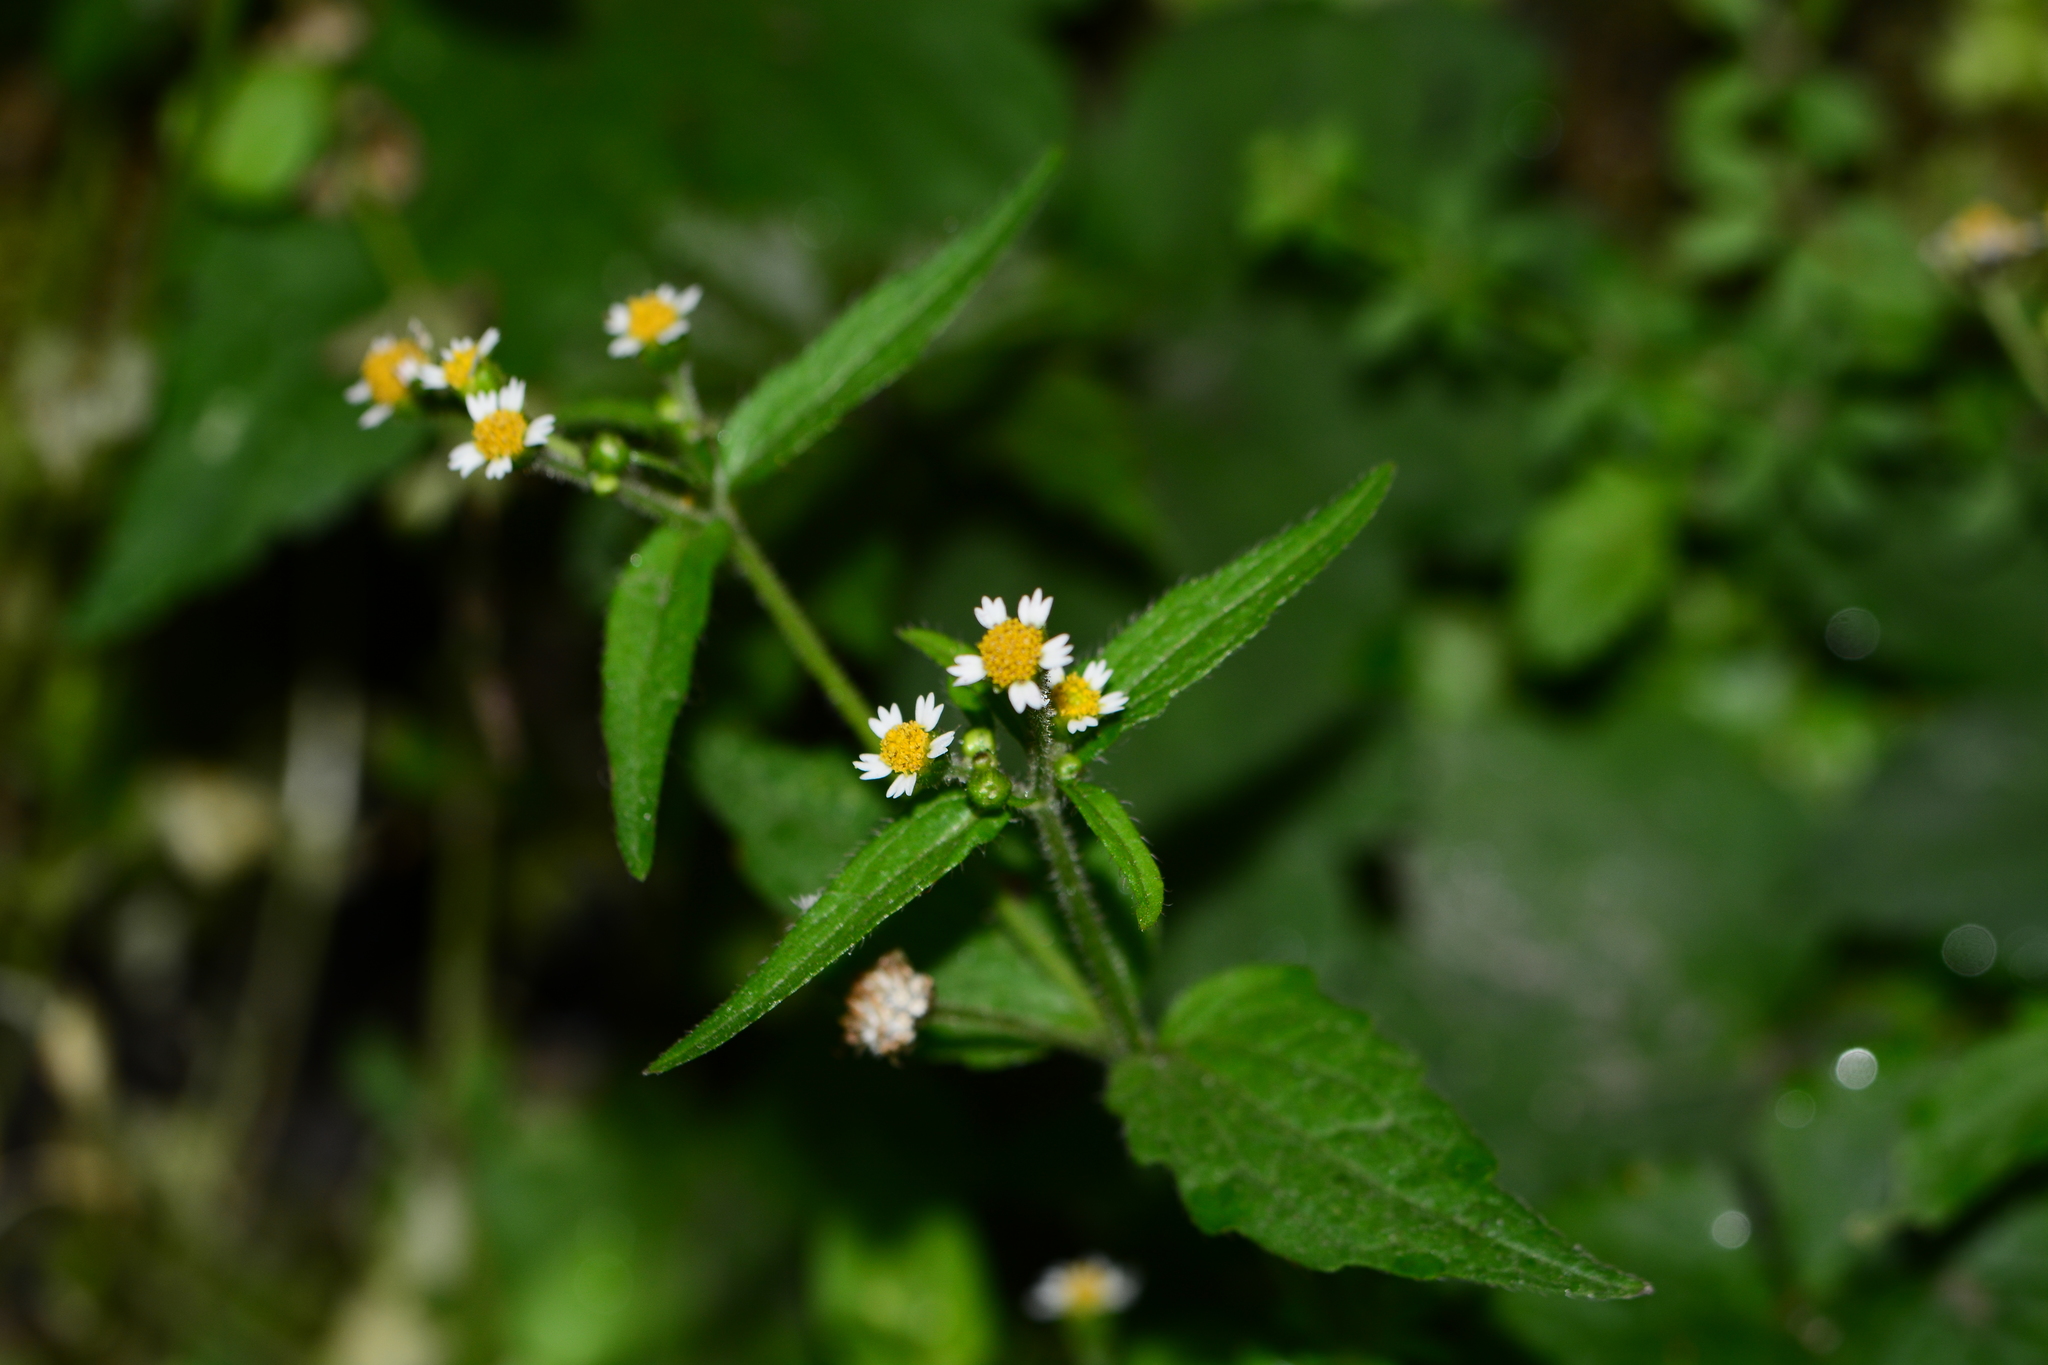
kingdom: Plantae
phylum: Tracheophyta
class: Magnoliopsida
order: Asterales
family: Asteraceae
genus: Galinsoga
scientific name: Galinsoga quadriradiata
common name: Shaggy soldier
